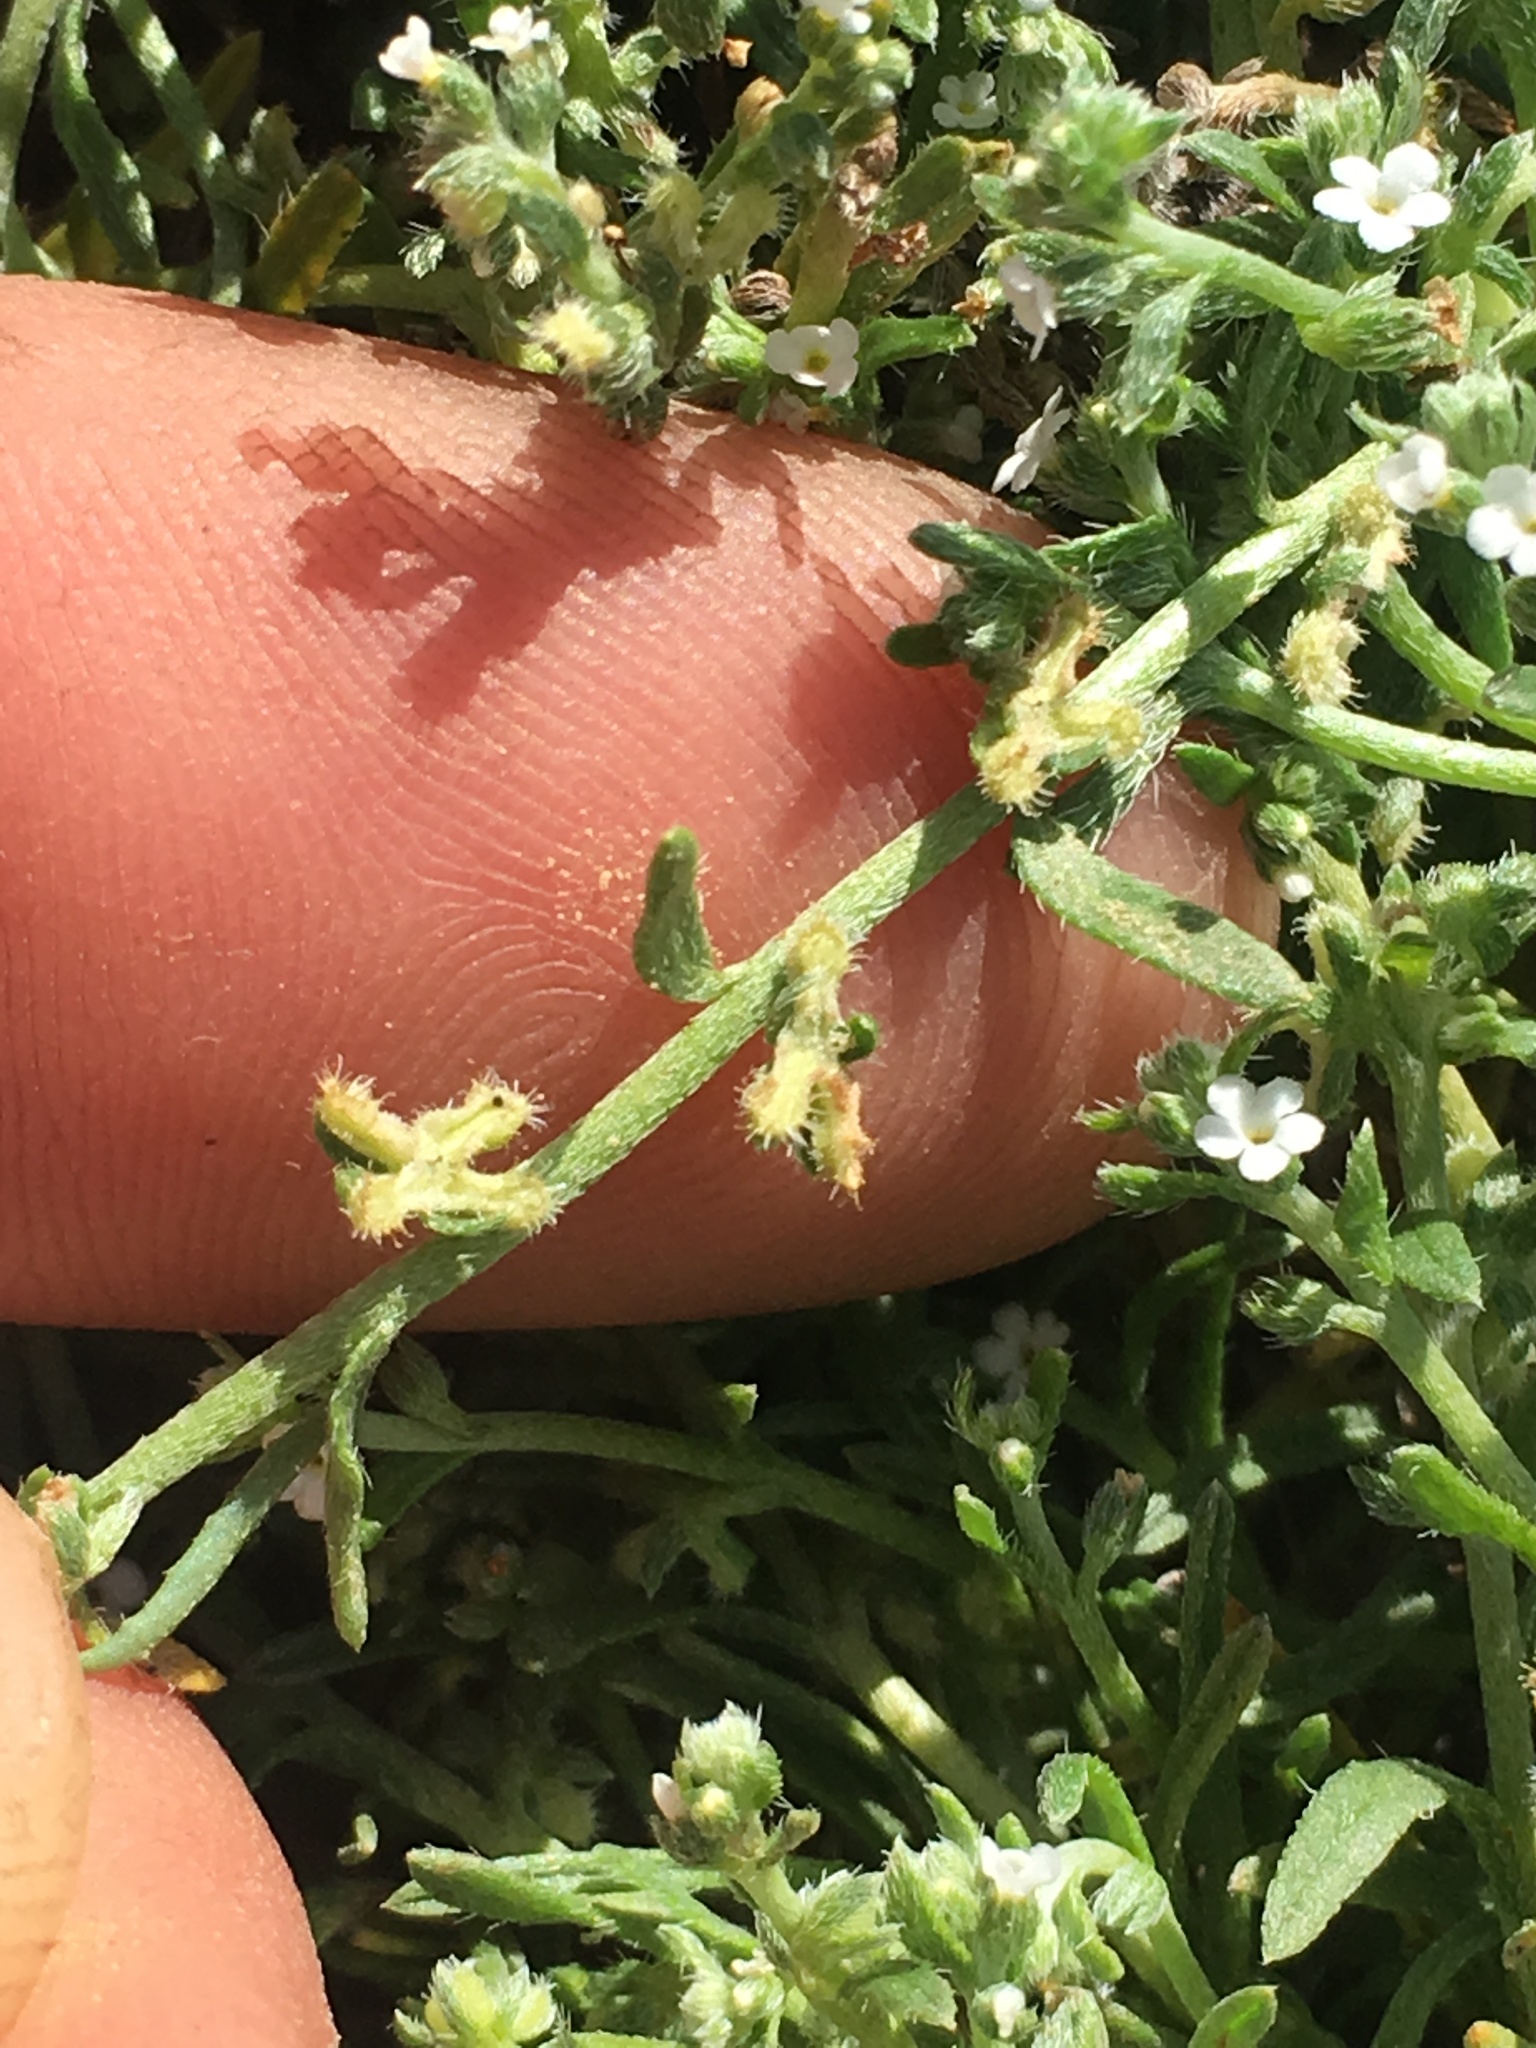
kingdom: Plantae
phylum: Tracheophyta
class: Magnoliopsida
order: Boraginales
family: Boraginaceae
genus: Pectocarya
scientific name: Pectocarya penicillata
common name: Short-leaved combseed
